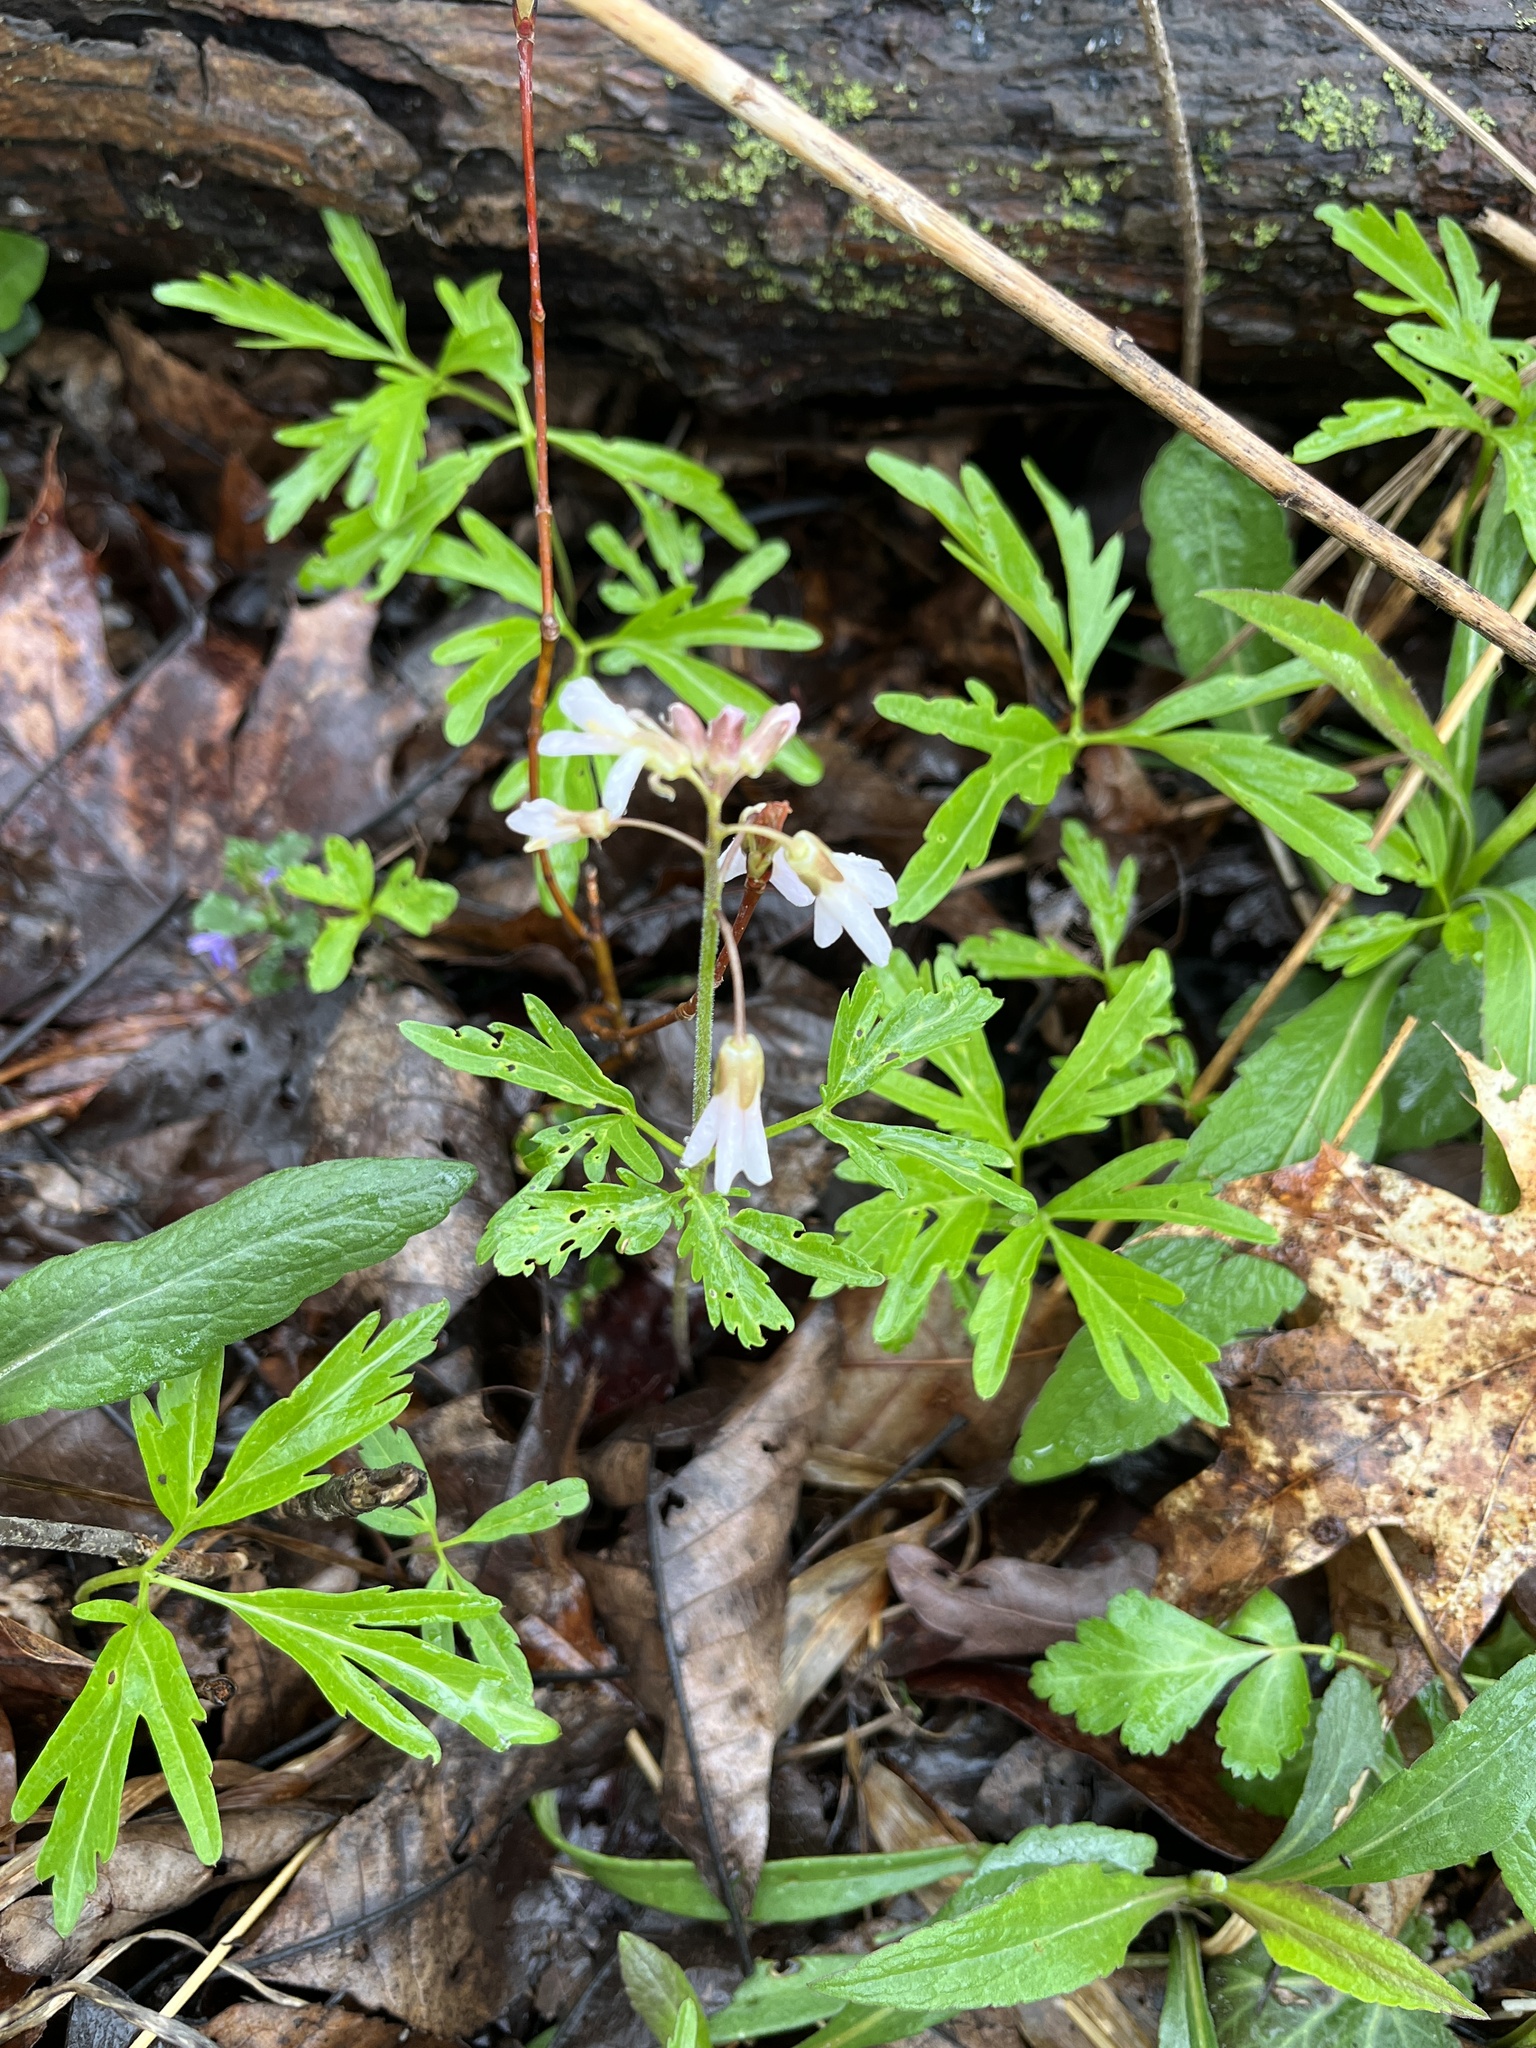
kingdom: Plantae
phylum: Tracheophyta
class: Magnoliopsida
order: Brassicales
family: Brassicaceae
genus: Cardamine
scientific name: Cardamine concatenata
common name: Cut-leaf toothcup
